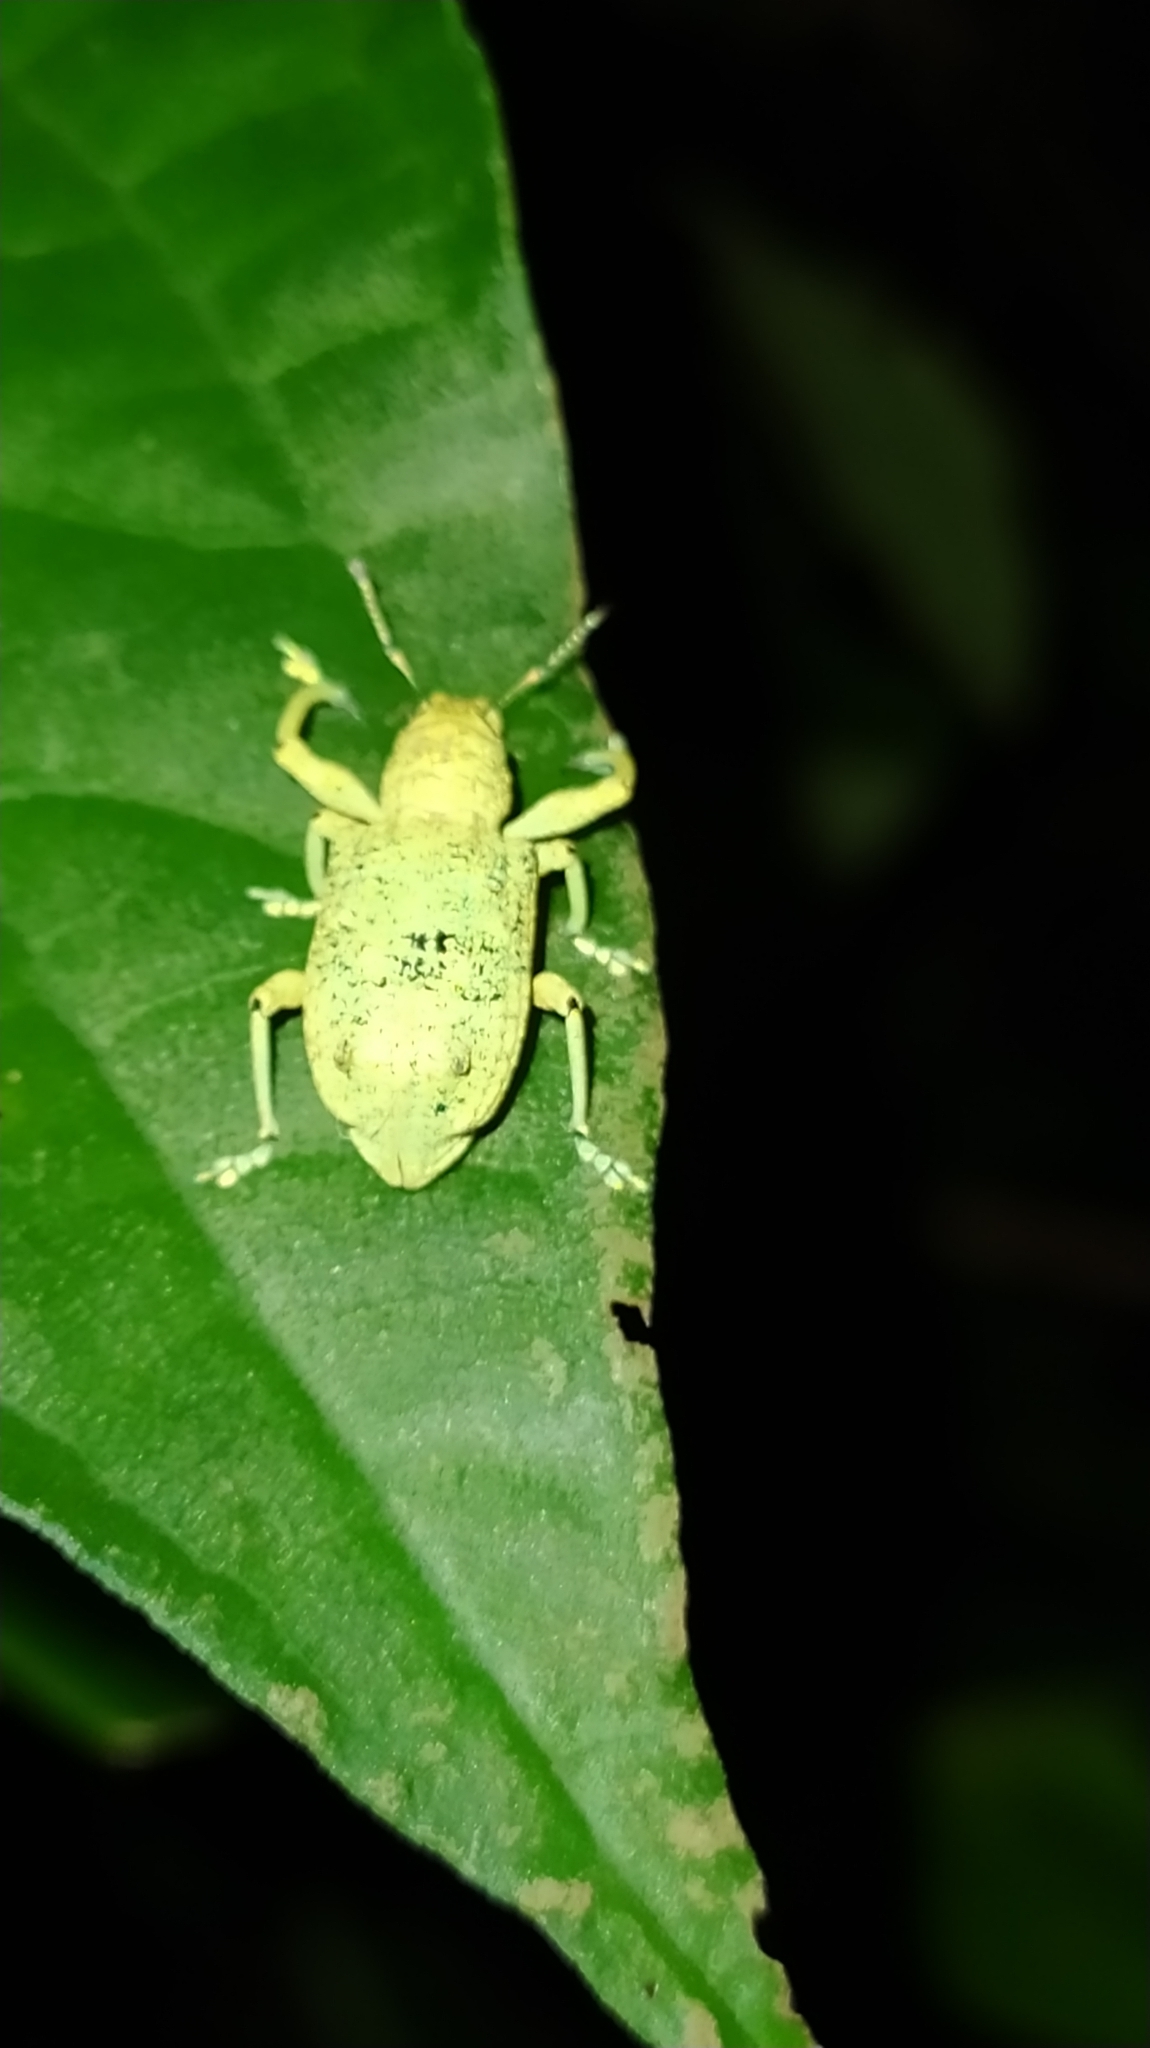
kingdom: Animalia
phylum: Arthropoda
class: Insecta
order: Coleoptera
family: Curculionidae
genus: Rhigus
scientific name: Rhigus speciosus
